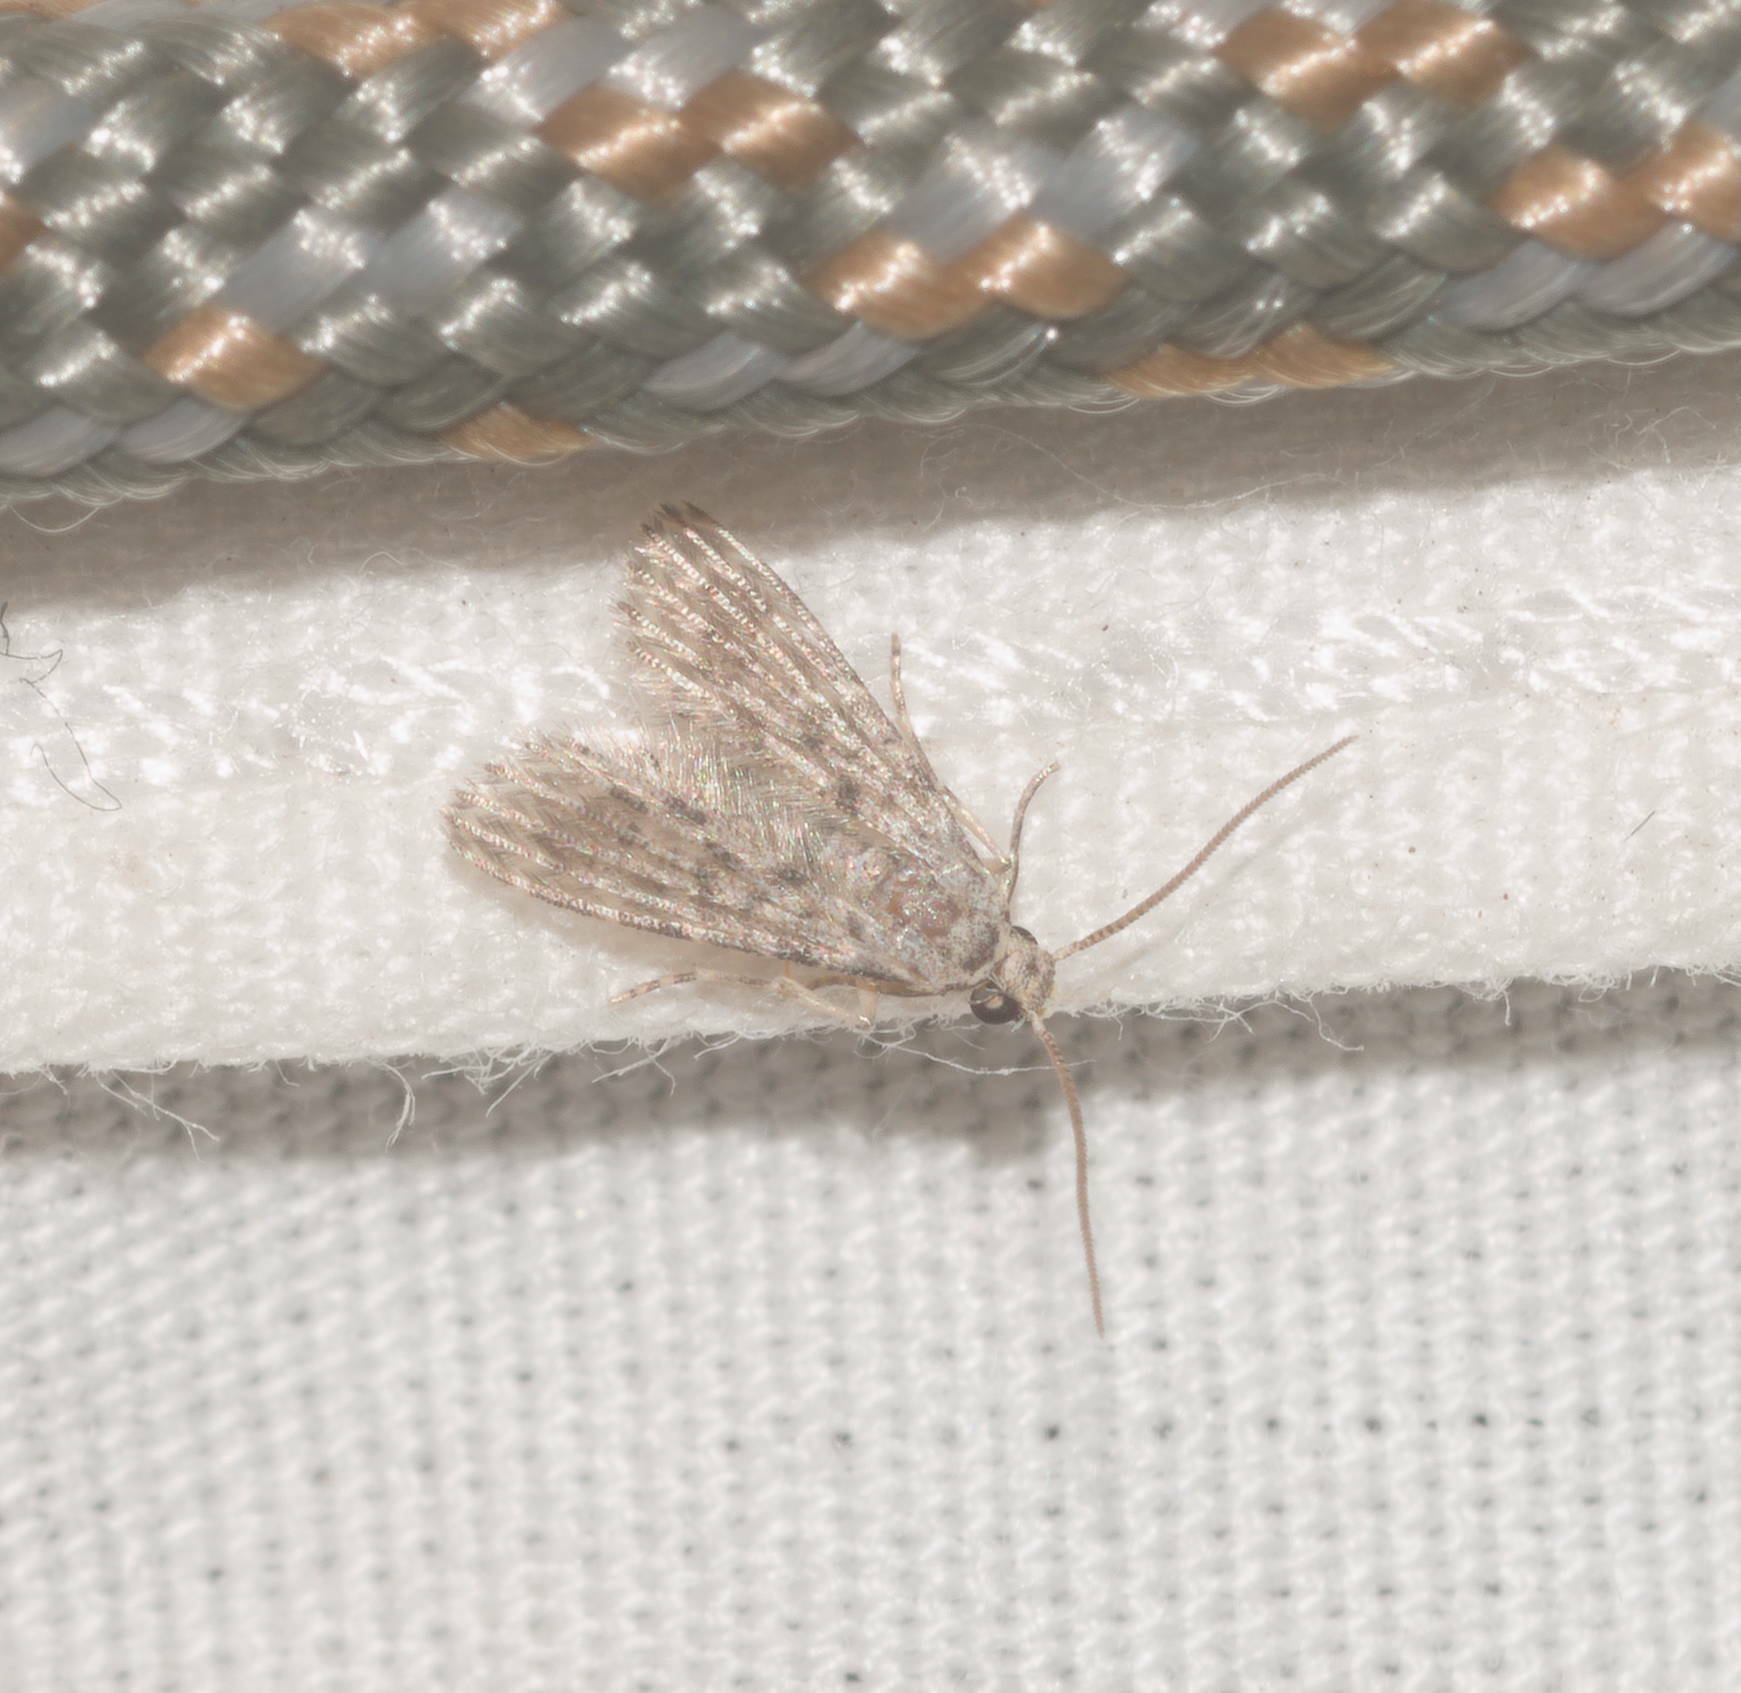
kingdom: Animalia
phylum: Arthropoda
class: Insecta
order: Lepidoptera
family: Alucitidae
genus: Alucita
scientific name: Alucita objurgatella
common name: Moth
